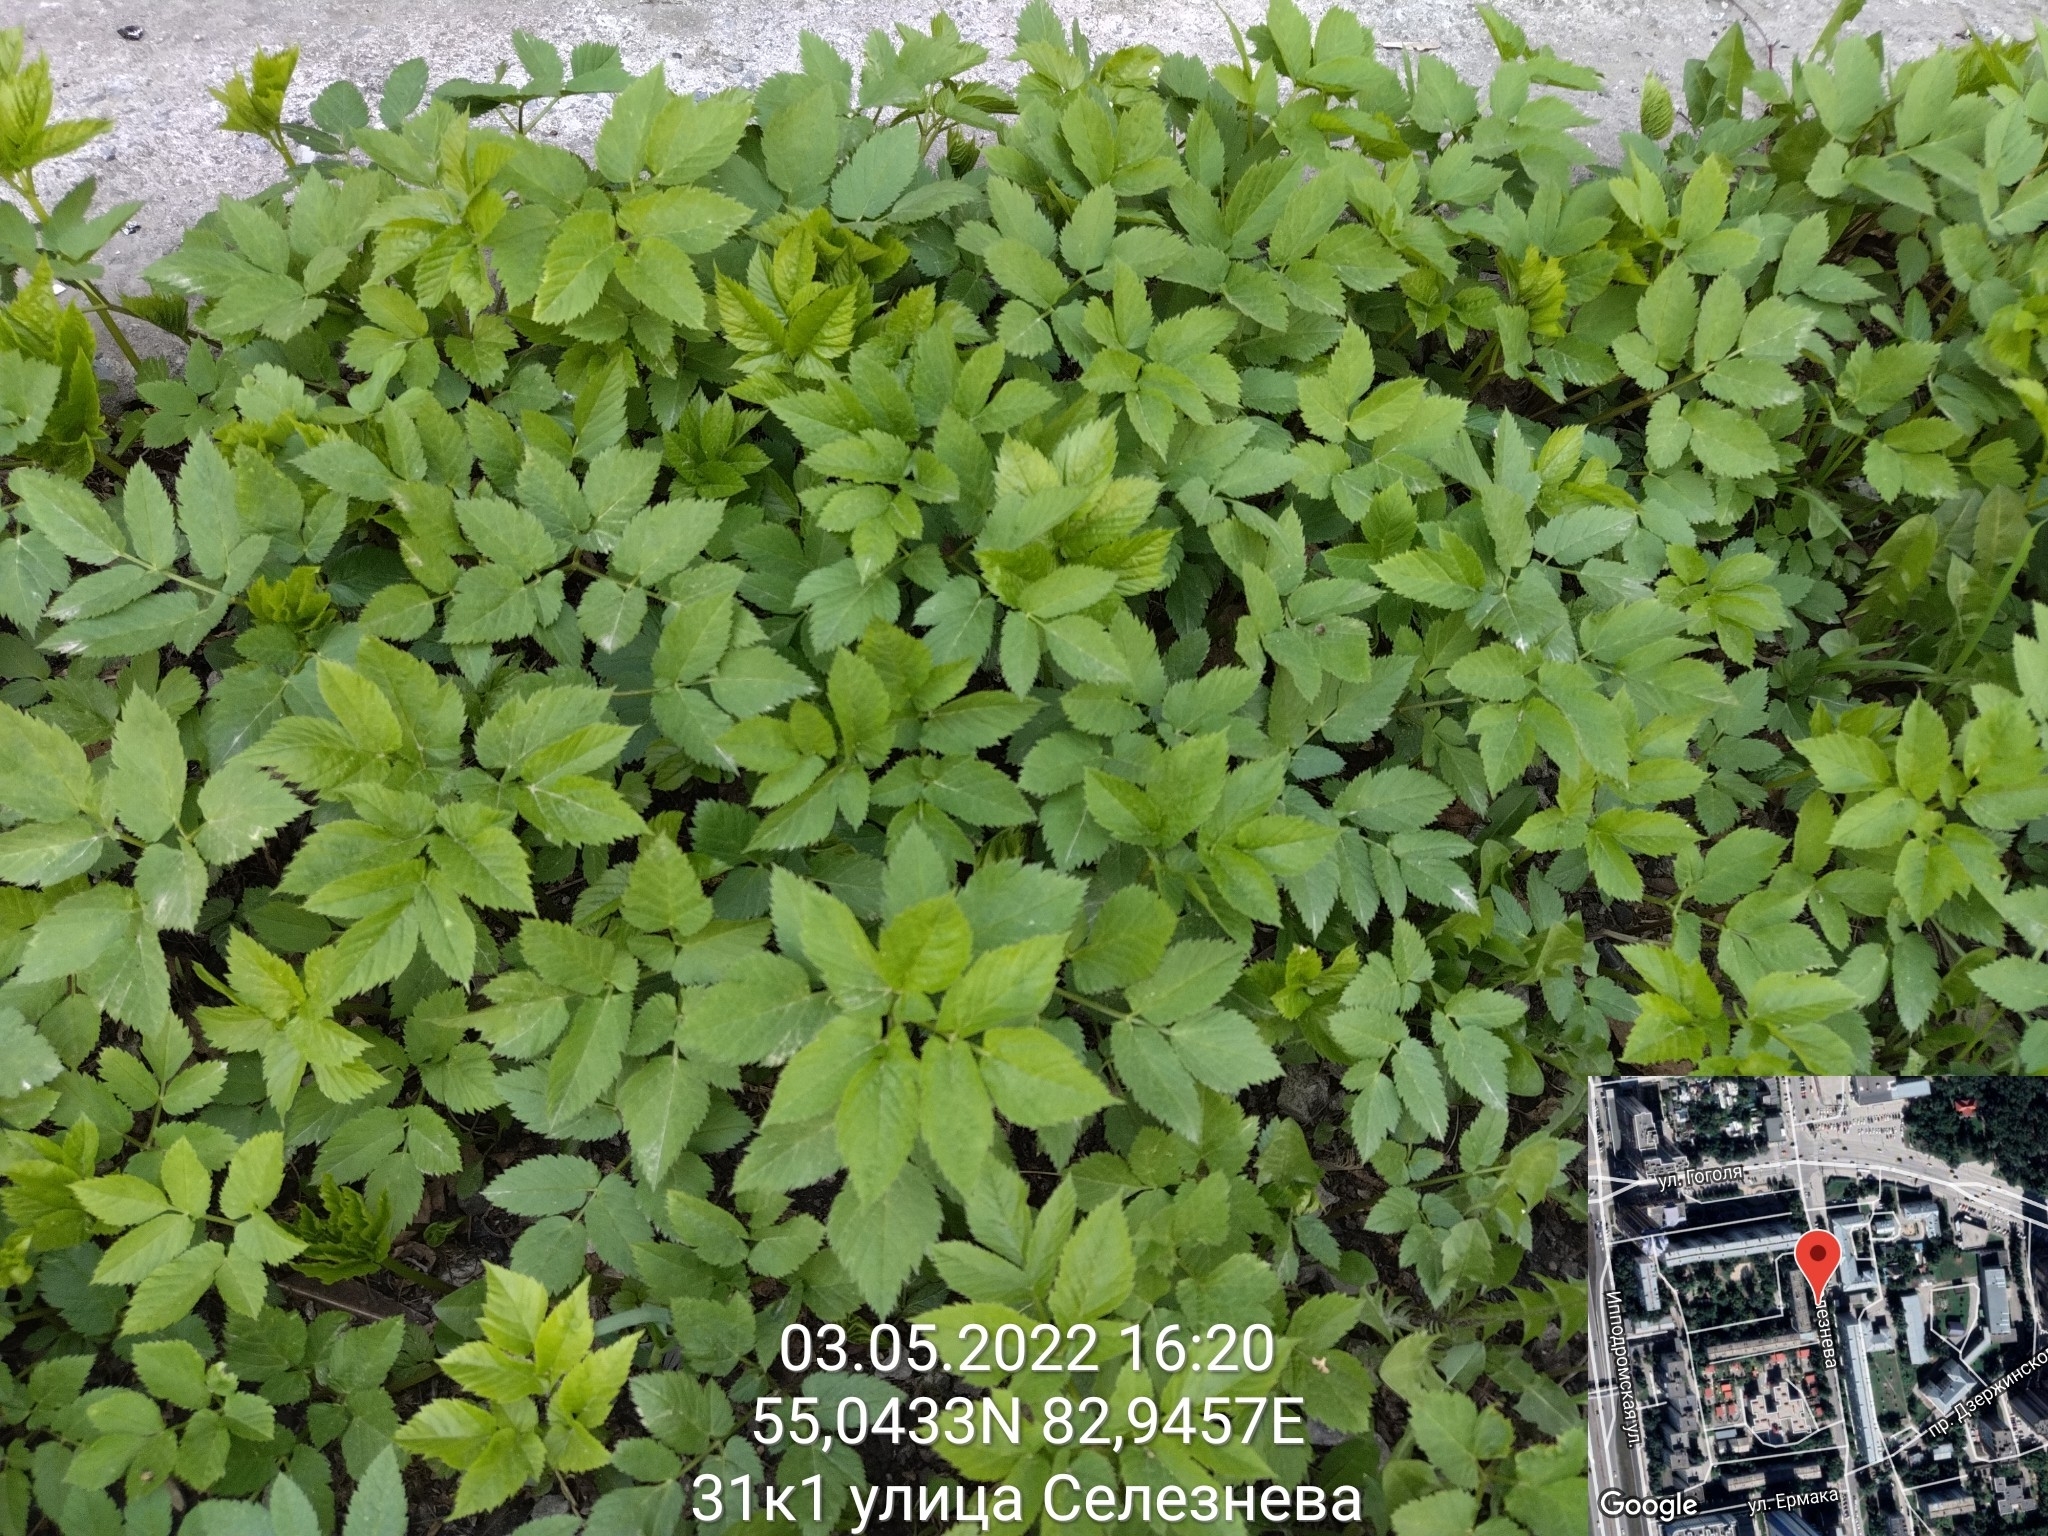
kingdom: Plantae
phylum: Tracheophyta
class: Magnoliopsida
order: Apiales
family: Apiaceae
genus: Aegopodium
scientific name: Aegopodium podagraria
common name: Ground-elder
